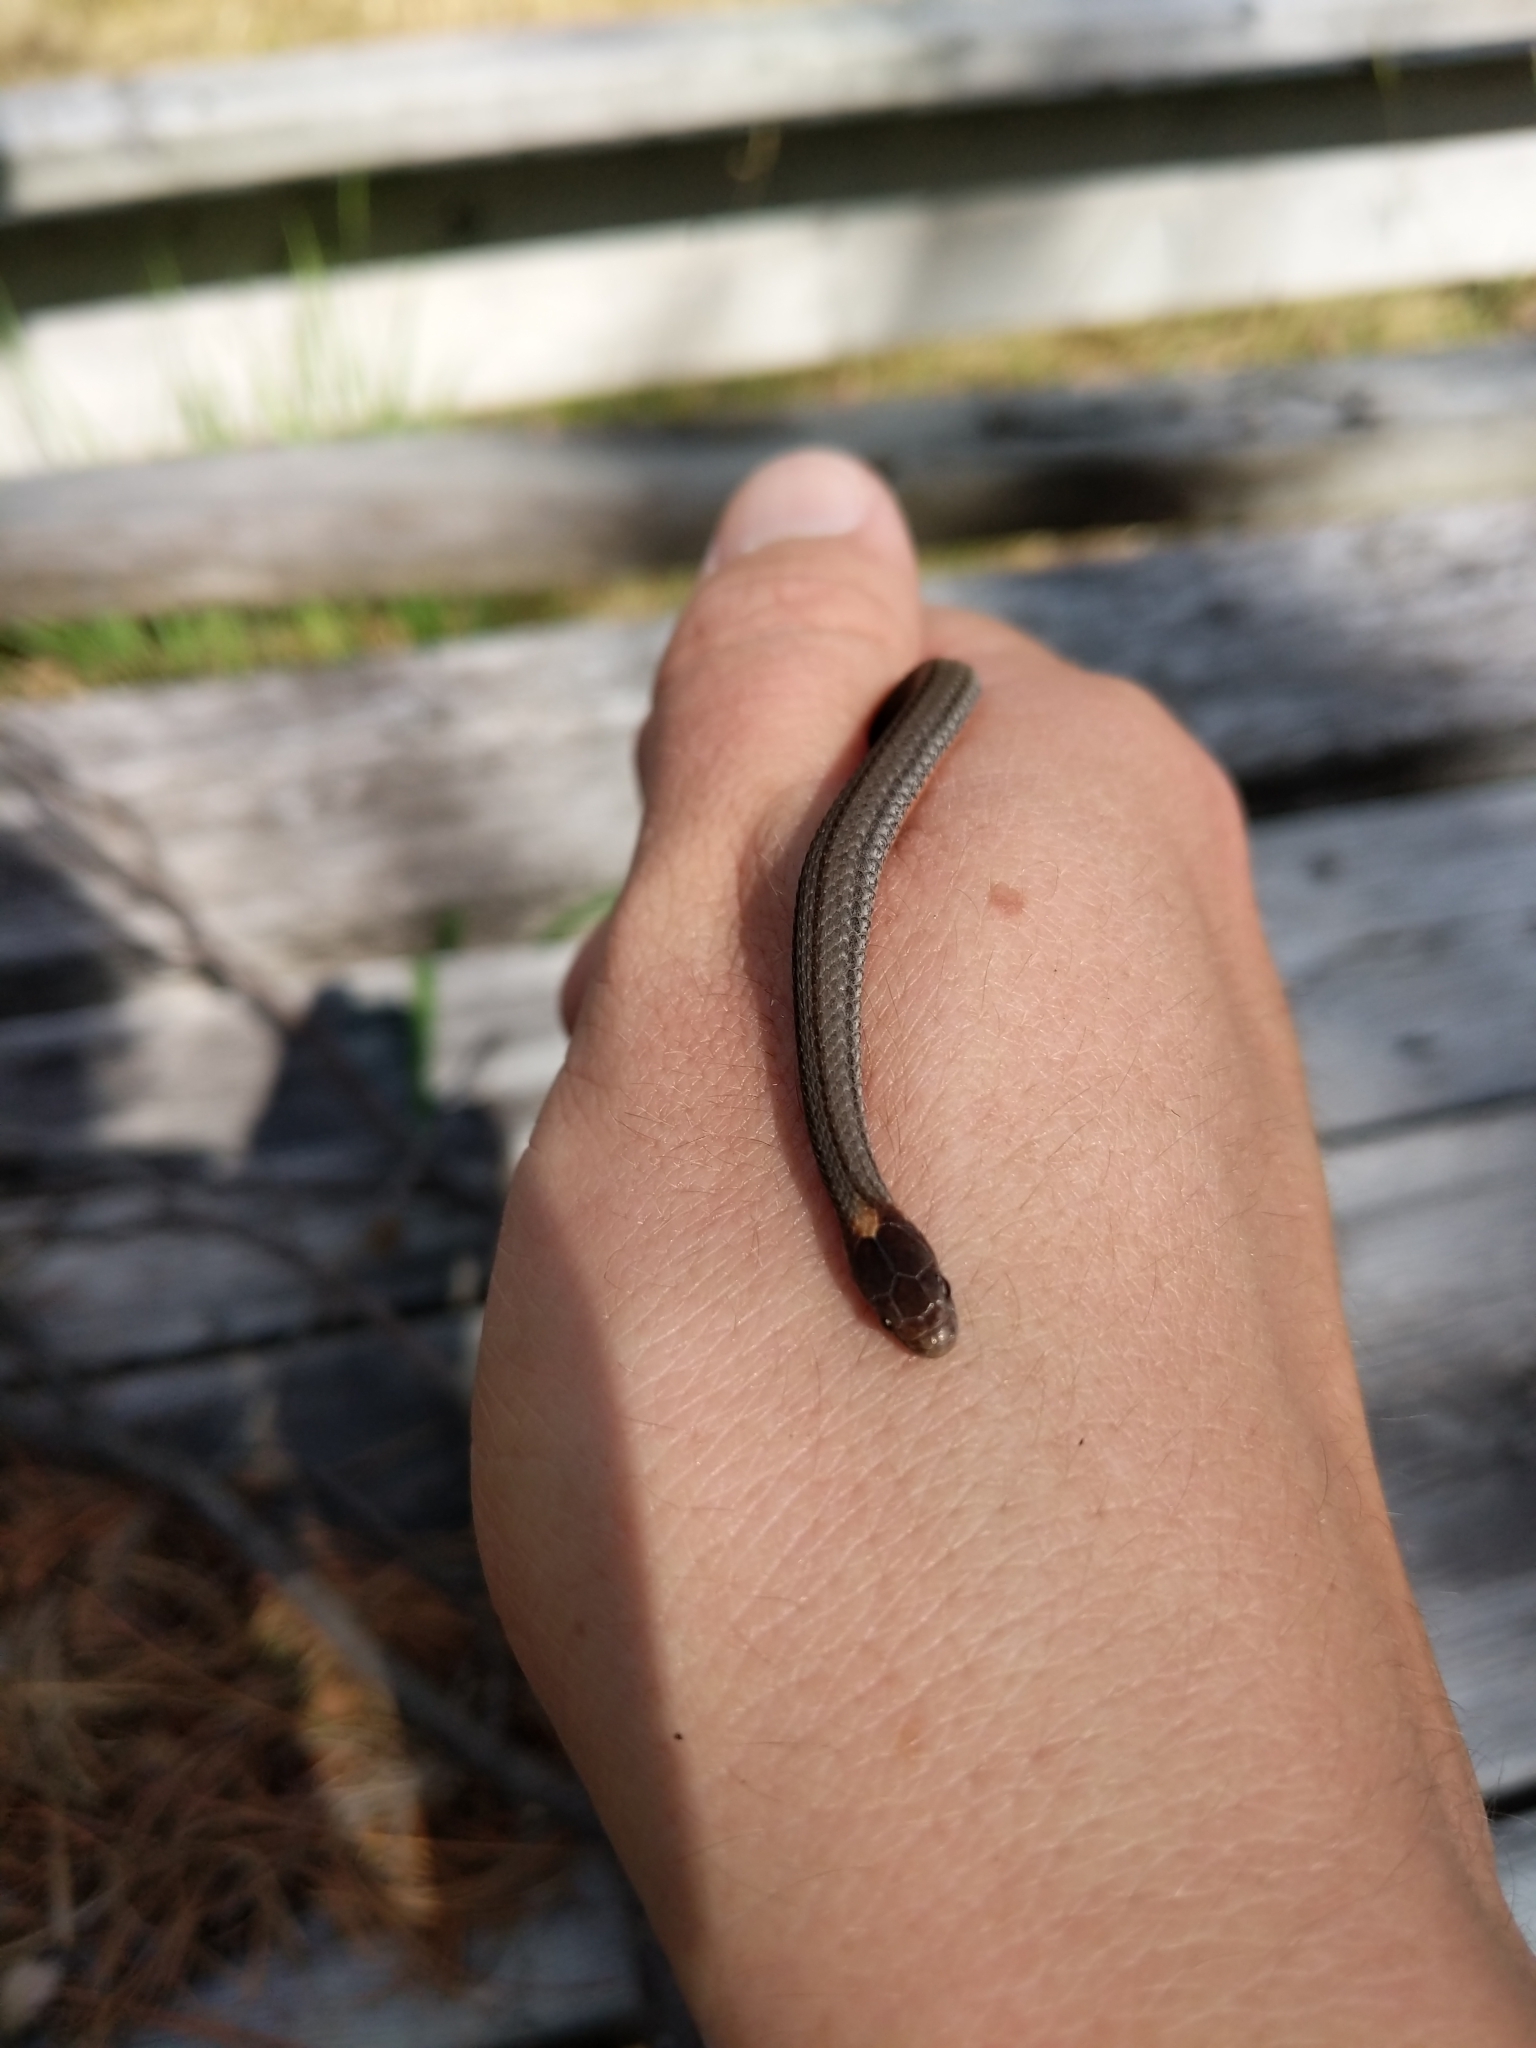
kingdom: Animalia
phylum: Chordata
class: Squamata
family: Colubridae
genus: Storeria
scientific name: Storeria occipitomaculata
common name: Redbelly snake
